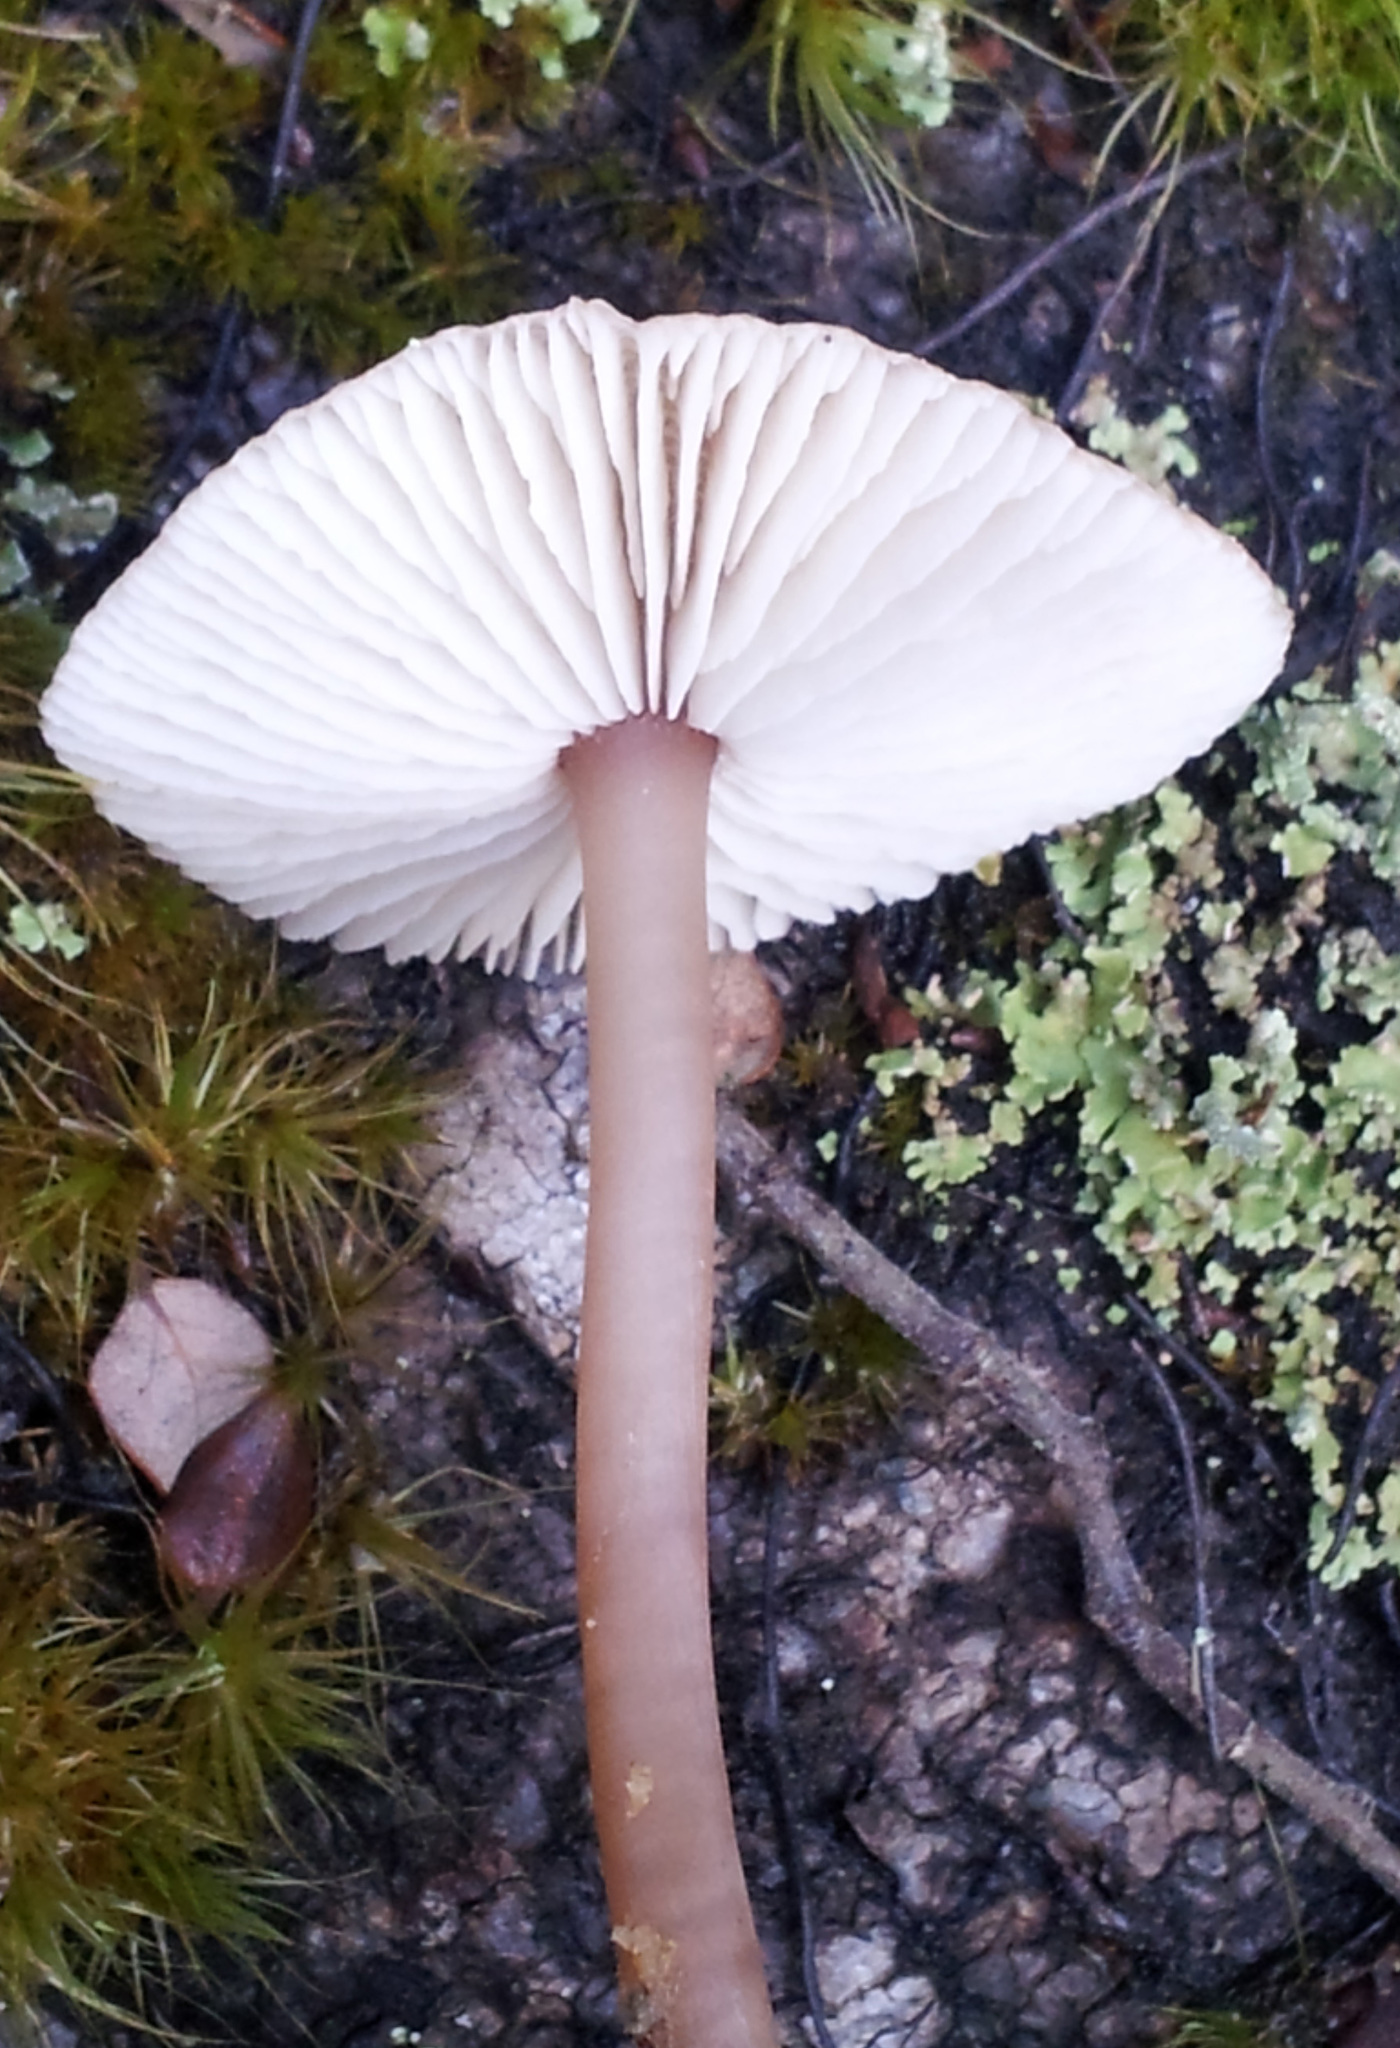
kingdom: Fungi
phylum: Basidiomycota
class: Agaricomycetes
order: Agaricales
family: Omphalotaceae
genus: Rhodocollybia
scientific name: Rhodocollybia incarnata
